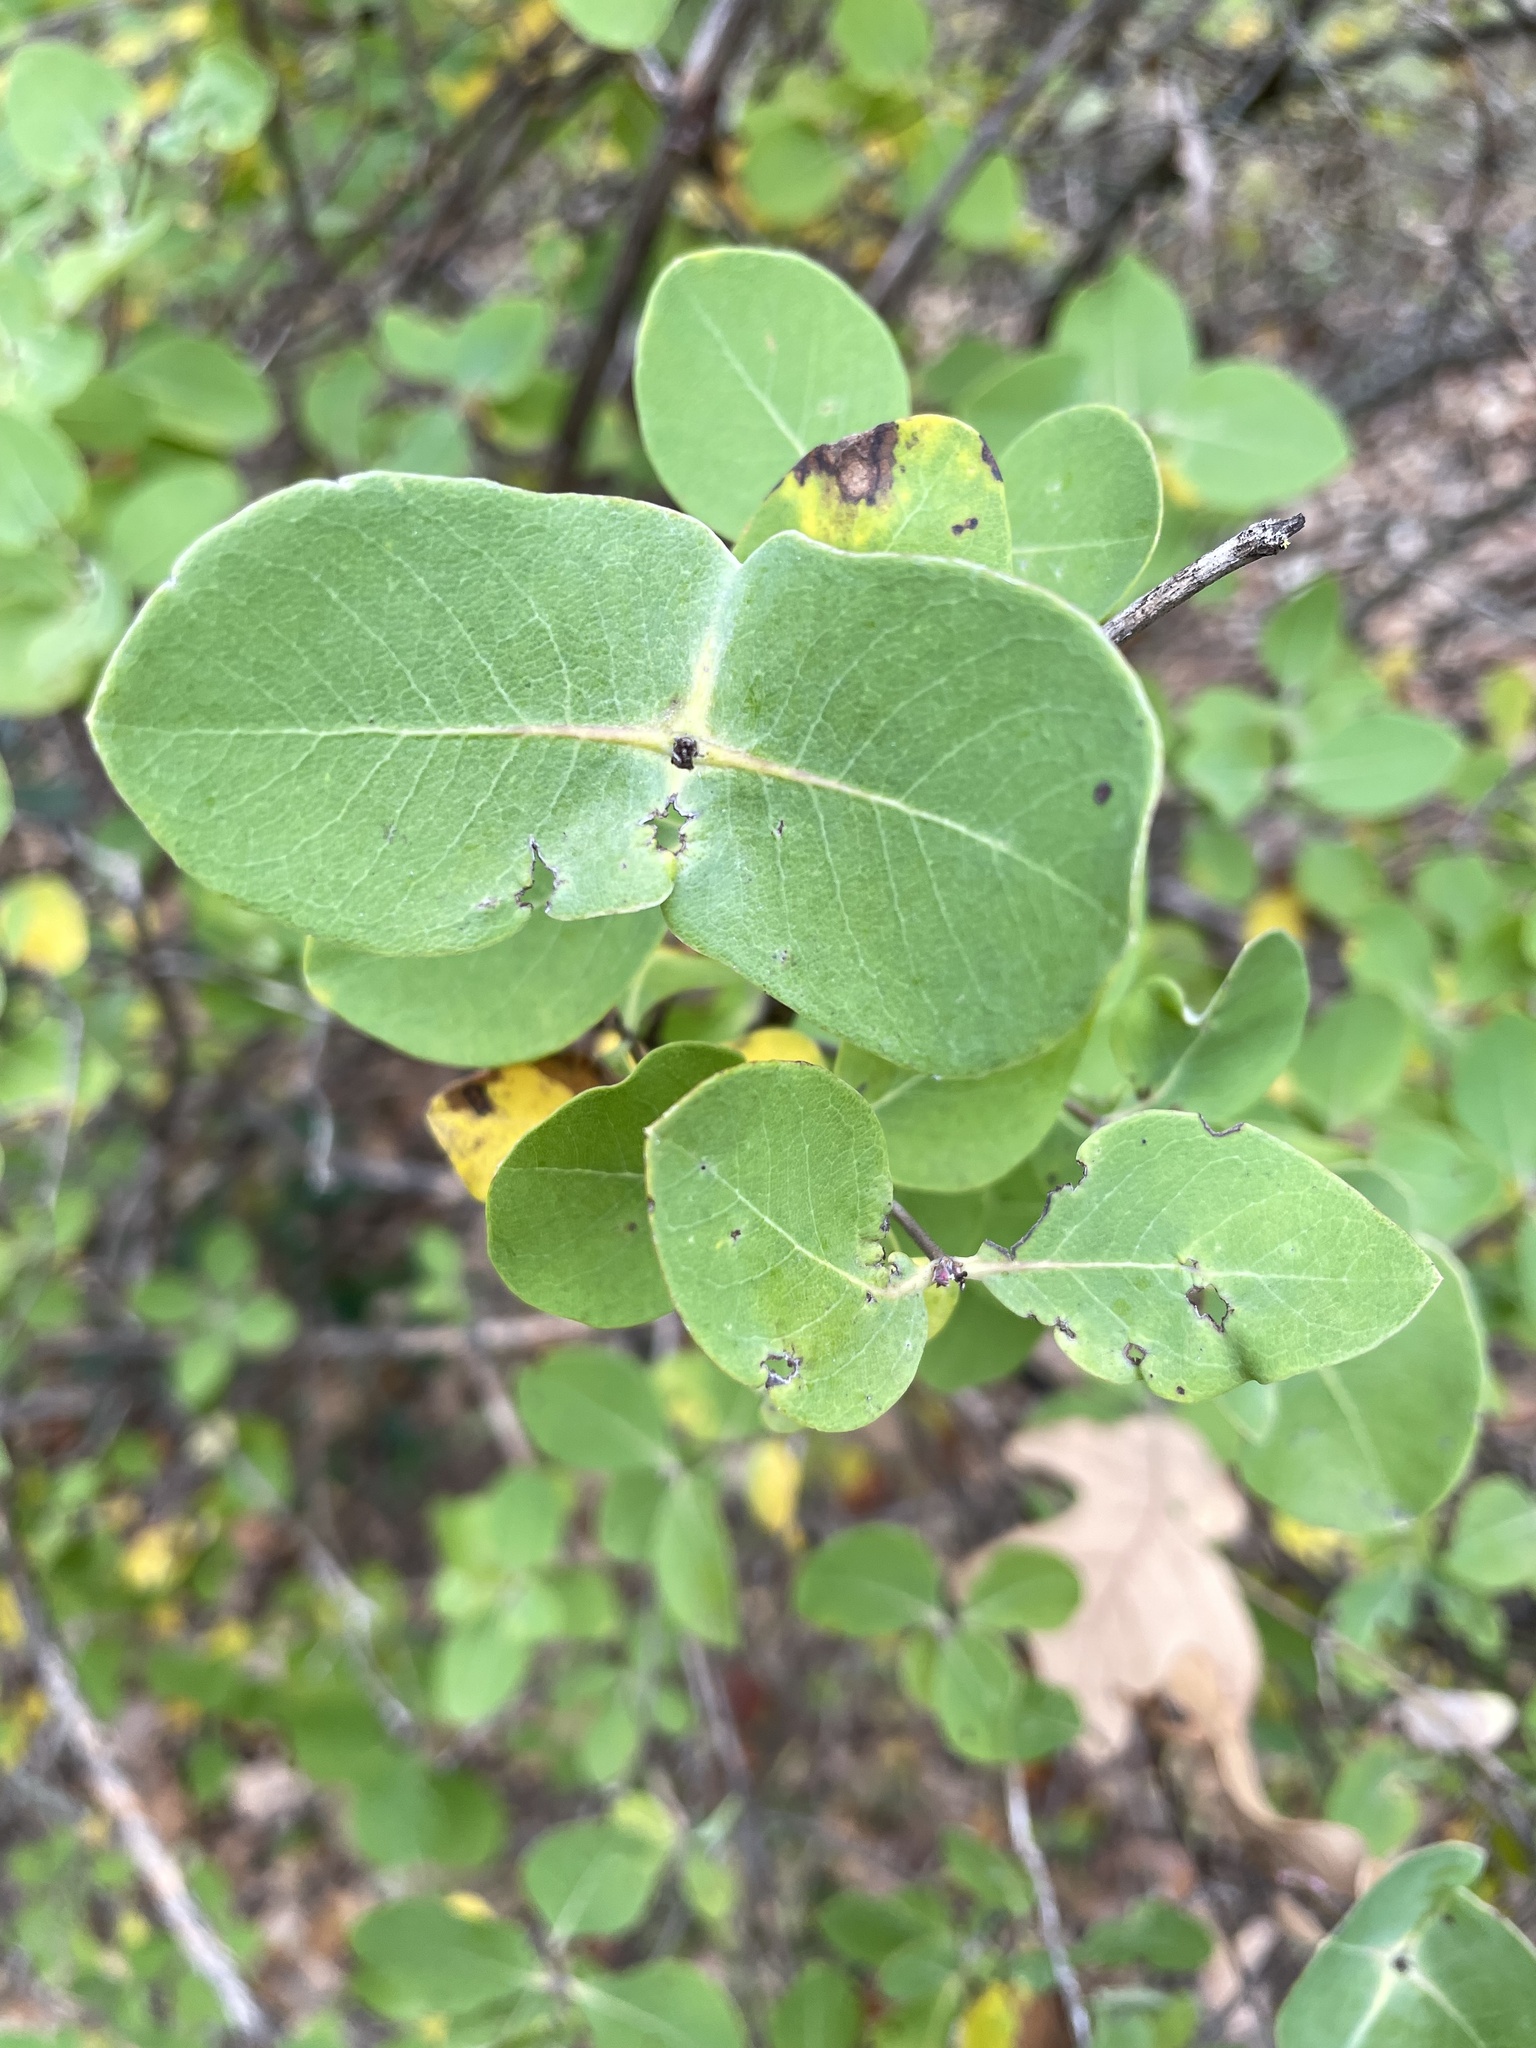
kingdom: Plantae
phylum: Tracheophyta
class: Magnoliopsida
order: Dipsacales
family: Caprifoliaceae
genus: Lonicera
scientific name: Lonicera albiflora
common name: White honeysuckle
